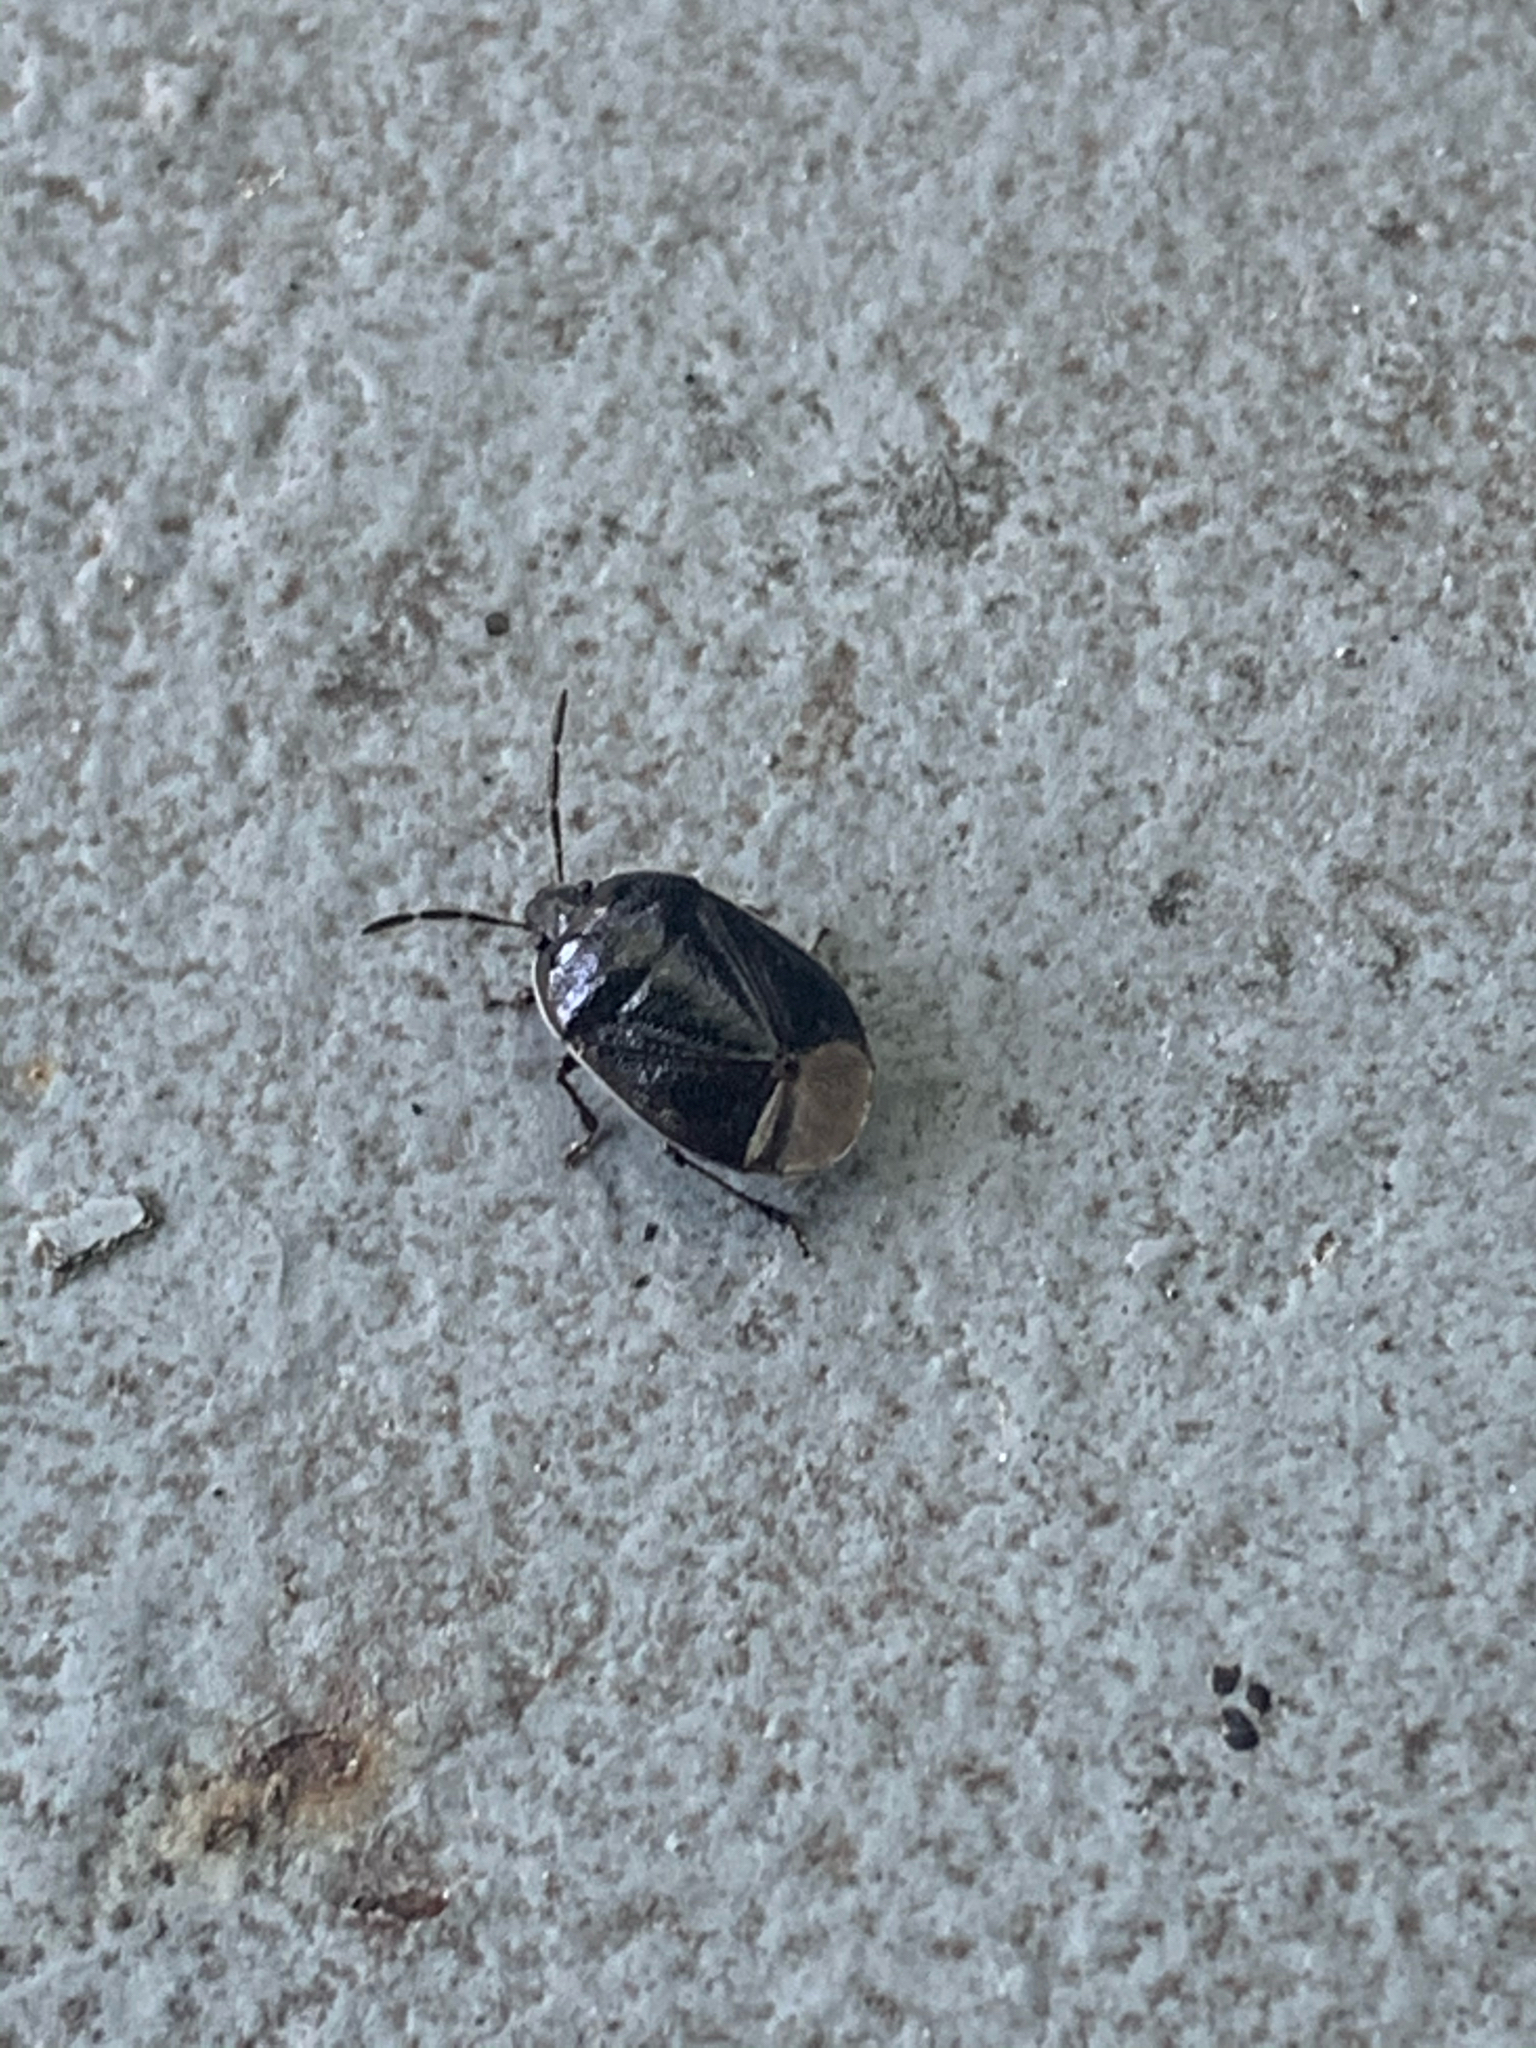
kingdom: Animalia
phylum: Arthropoda
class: Insecta
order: Hemiptera
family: Cydnidae
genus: Sehirus
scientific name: Sehirus cinctus
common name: White-margined burrower bug
